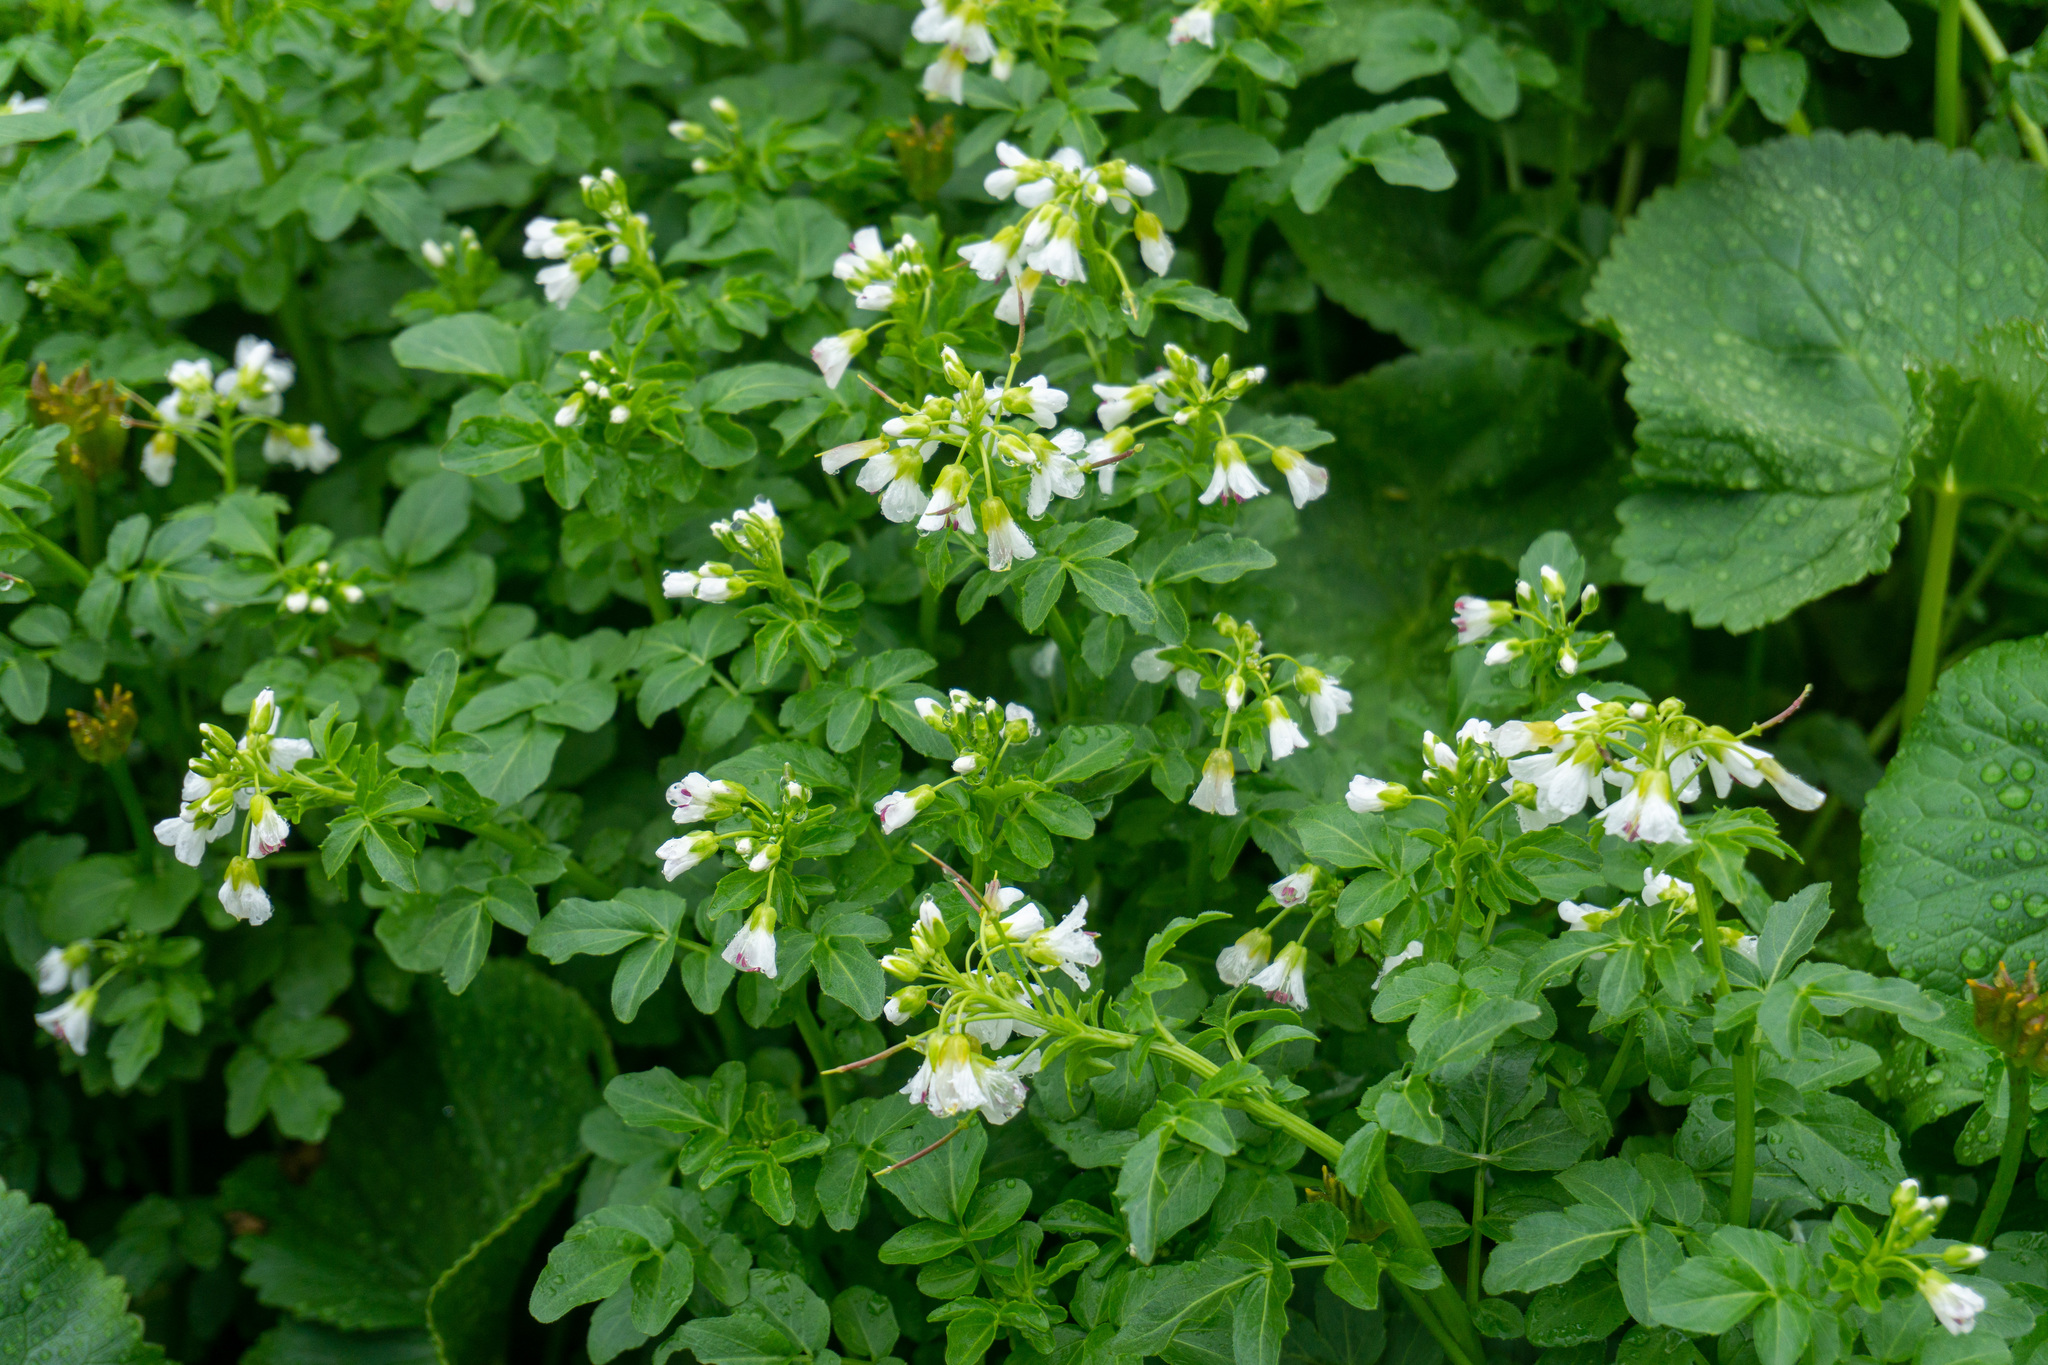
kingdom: Plantae
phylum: Tracheophyta
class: Magnoliopsida
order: Brassicales
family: Brassicaceae
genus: Cardamine
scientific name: Cardamine amara
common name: Large bitter-cress
